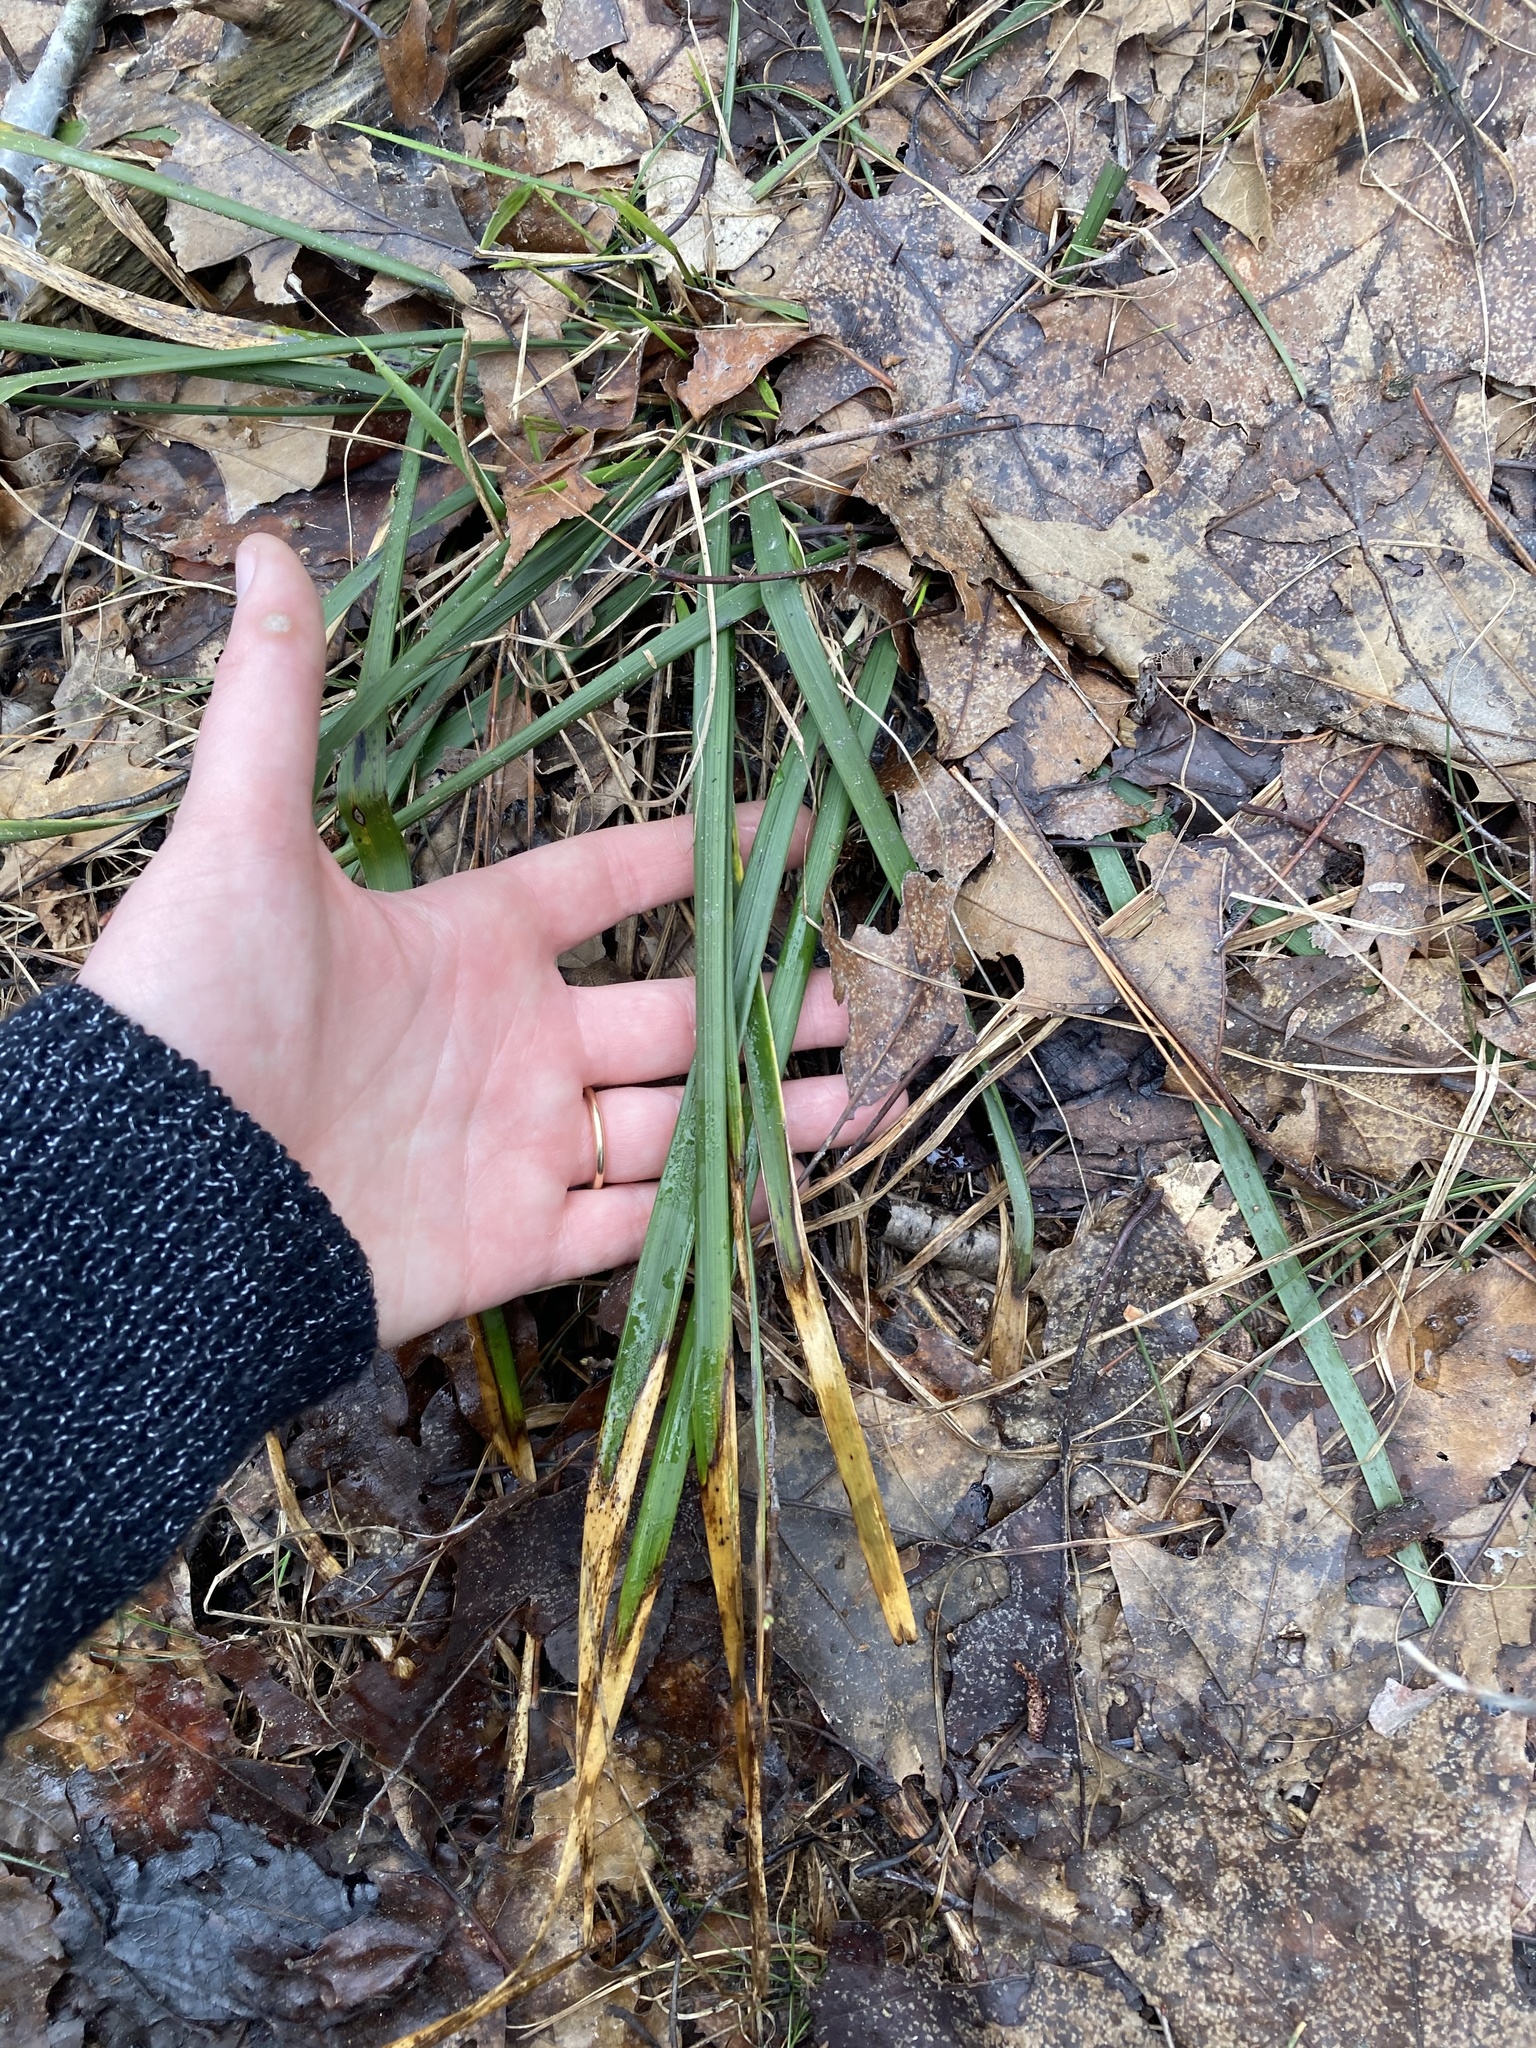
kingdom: Plantae
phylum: Tracheophyta
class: Liliopsida
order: Poales
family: Poaceae
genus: Oryzopsis
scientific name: Oryzopsis asperifolia
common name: Rough-leaved mountain rice
